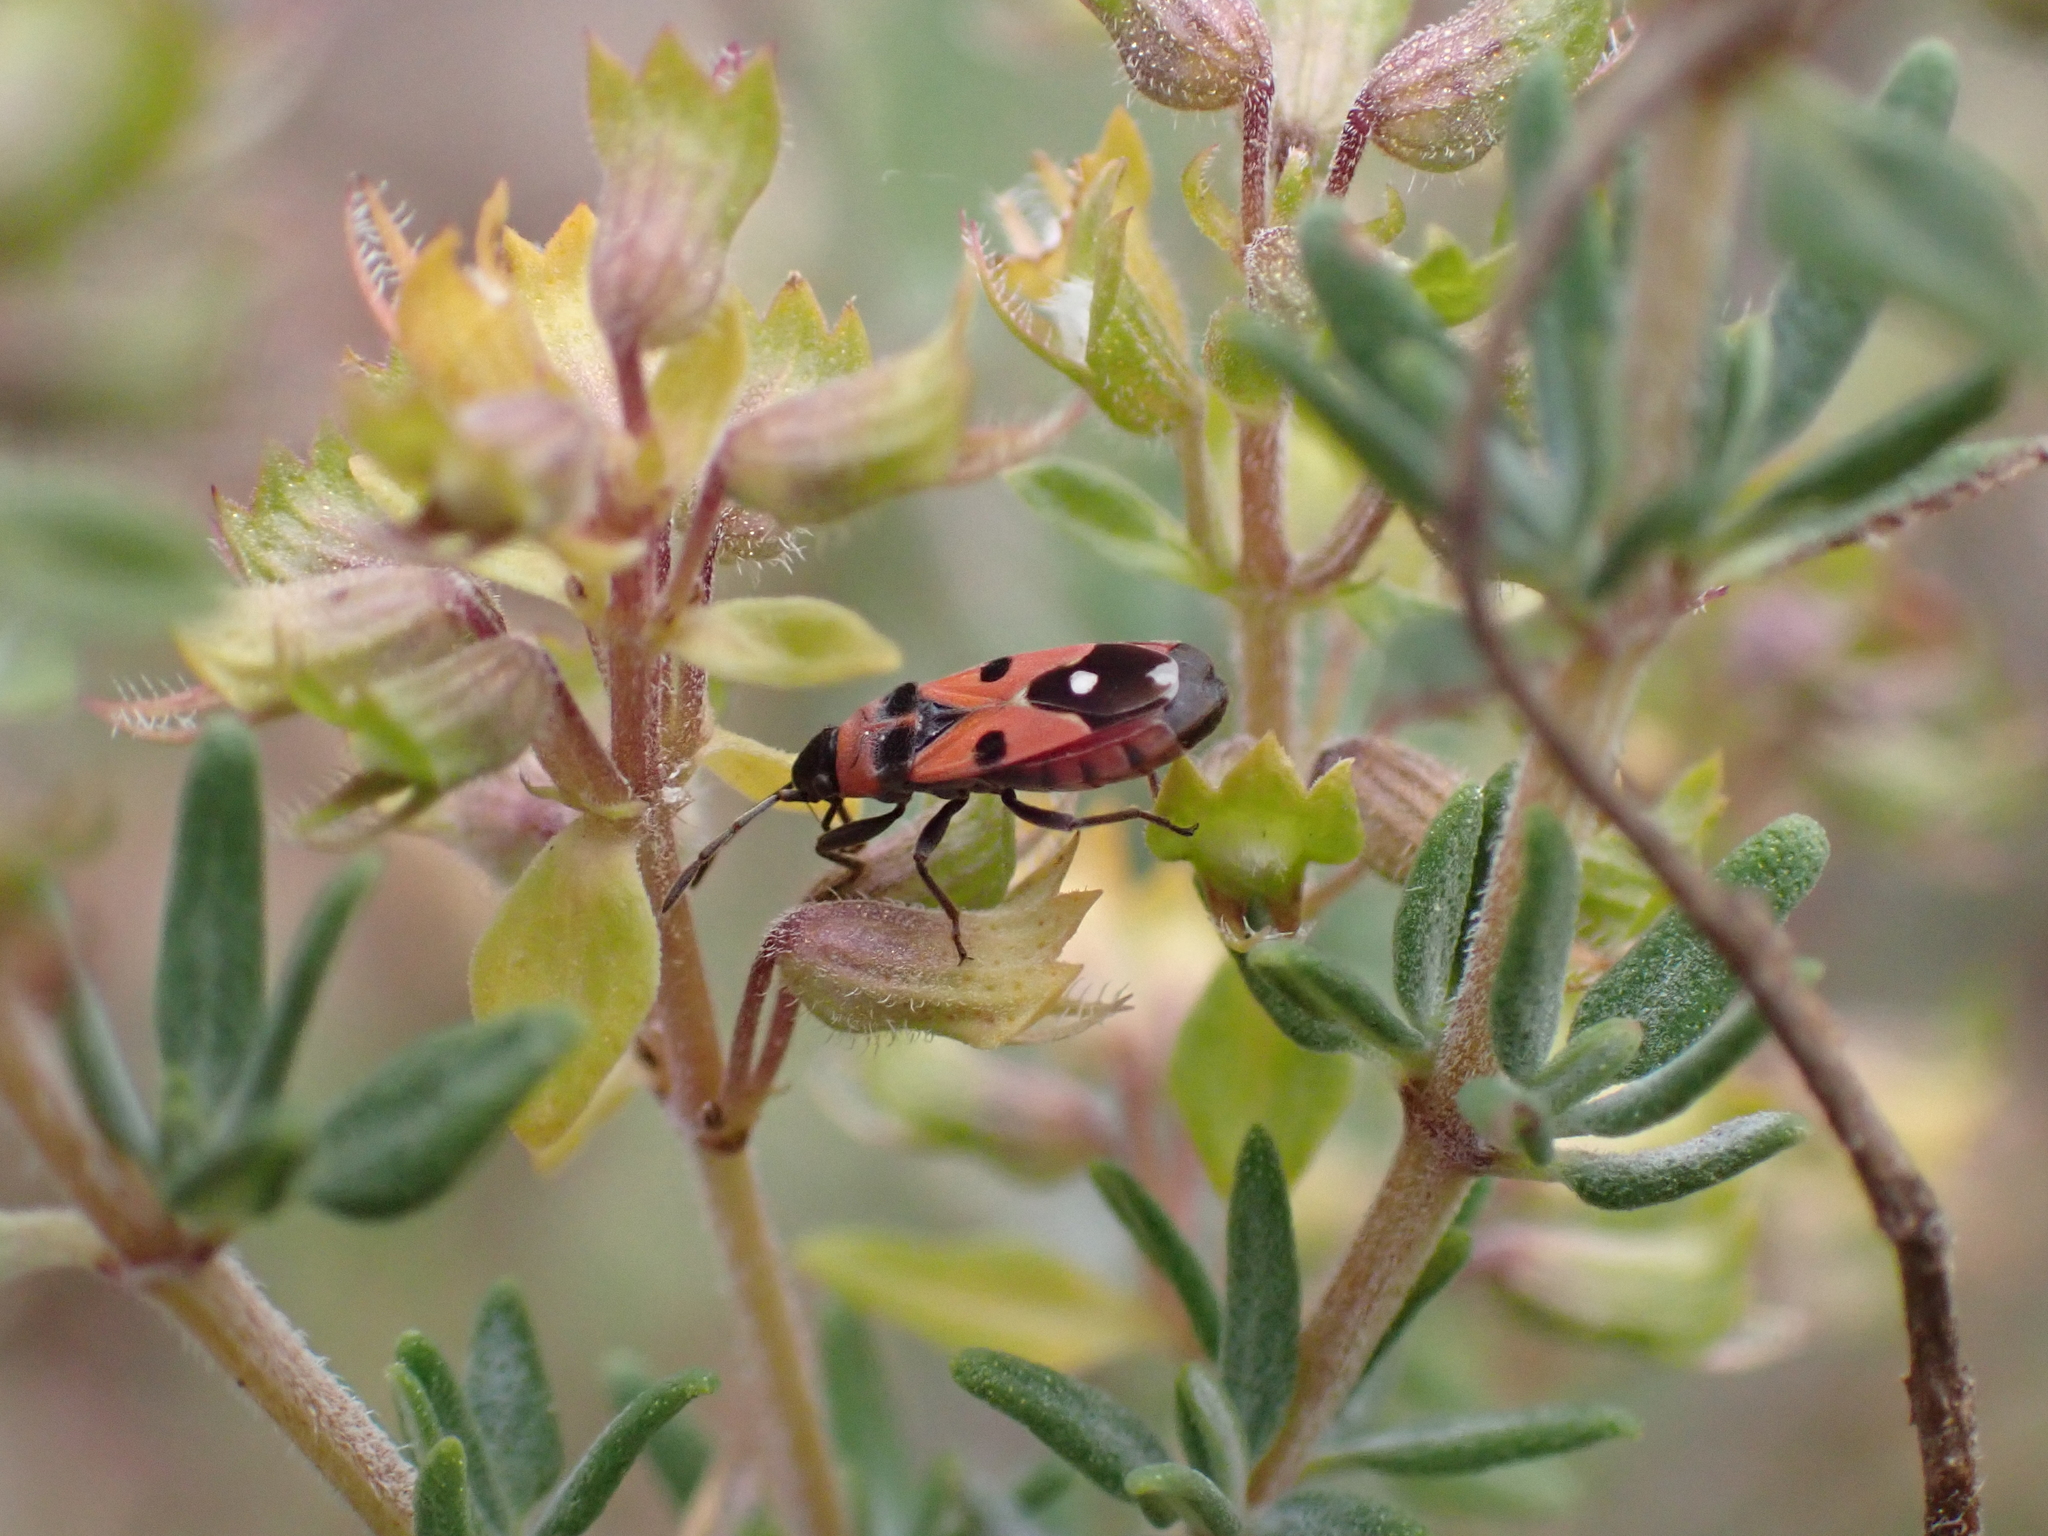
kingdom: Animalia
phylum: Arthropoda
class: Insecta
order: Hemiptera
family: Lygaeidae
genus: Horvathiolus
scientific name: Horvathiolus superbus
